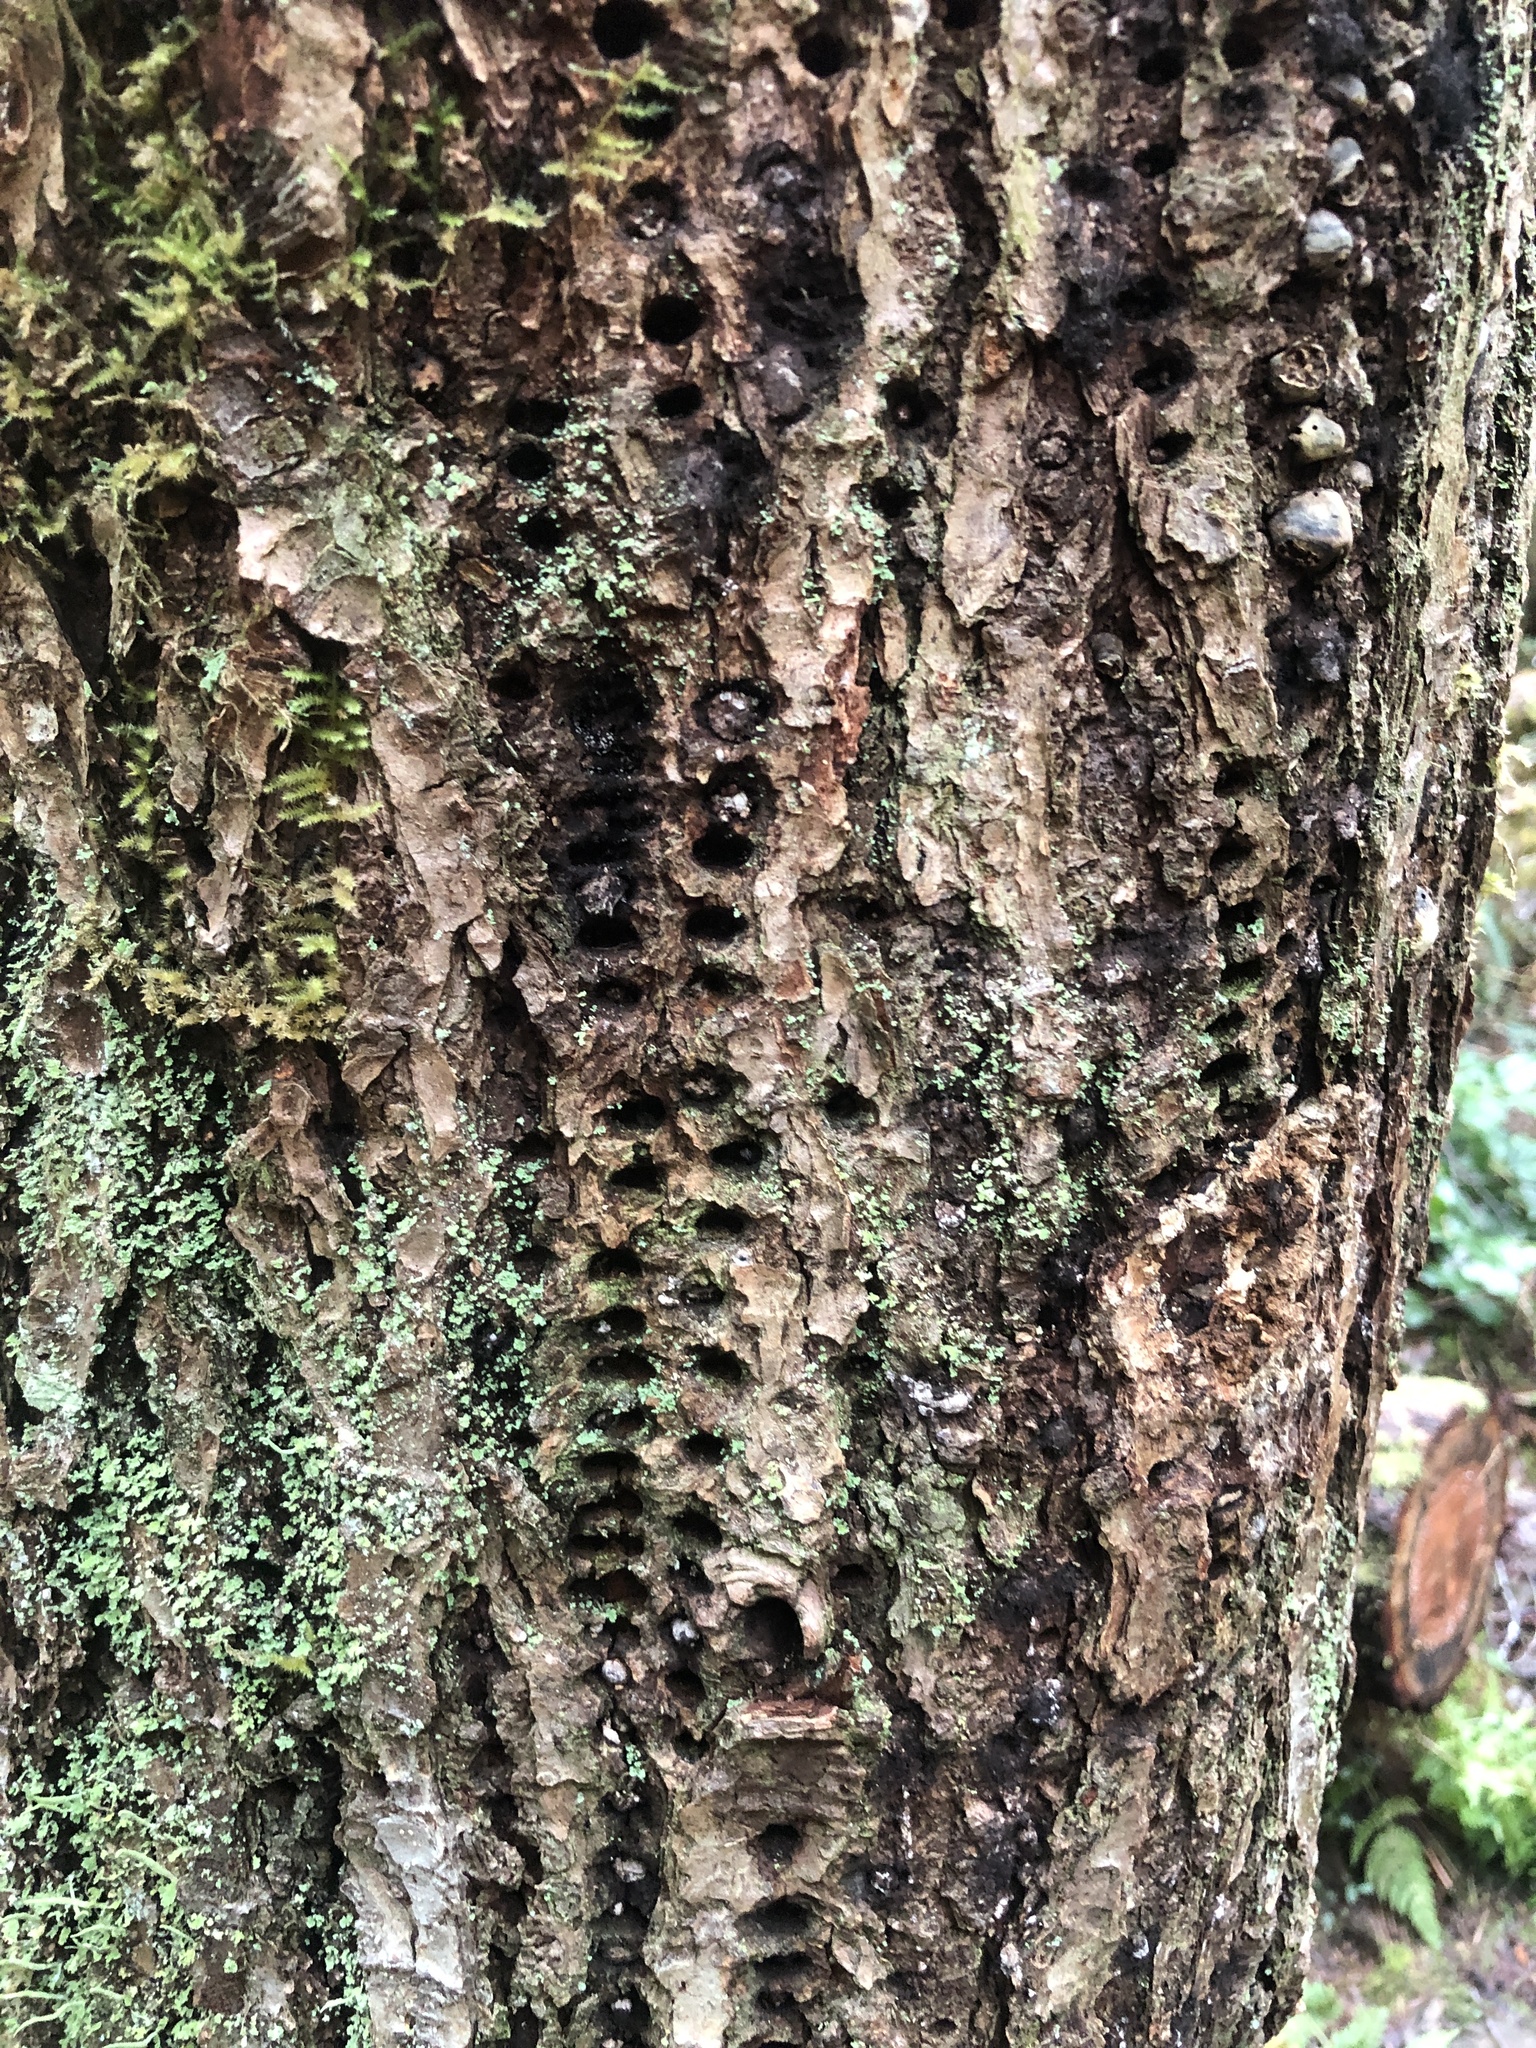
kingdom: Animalia
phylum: Chordata
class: Aves
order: Piciformes
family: Picidae
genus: Sphyrapicus
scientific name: Sphyrapicus ruber
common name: Red-breasted sapsucker
